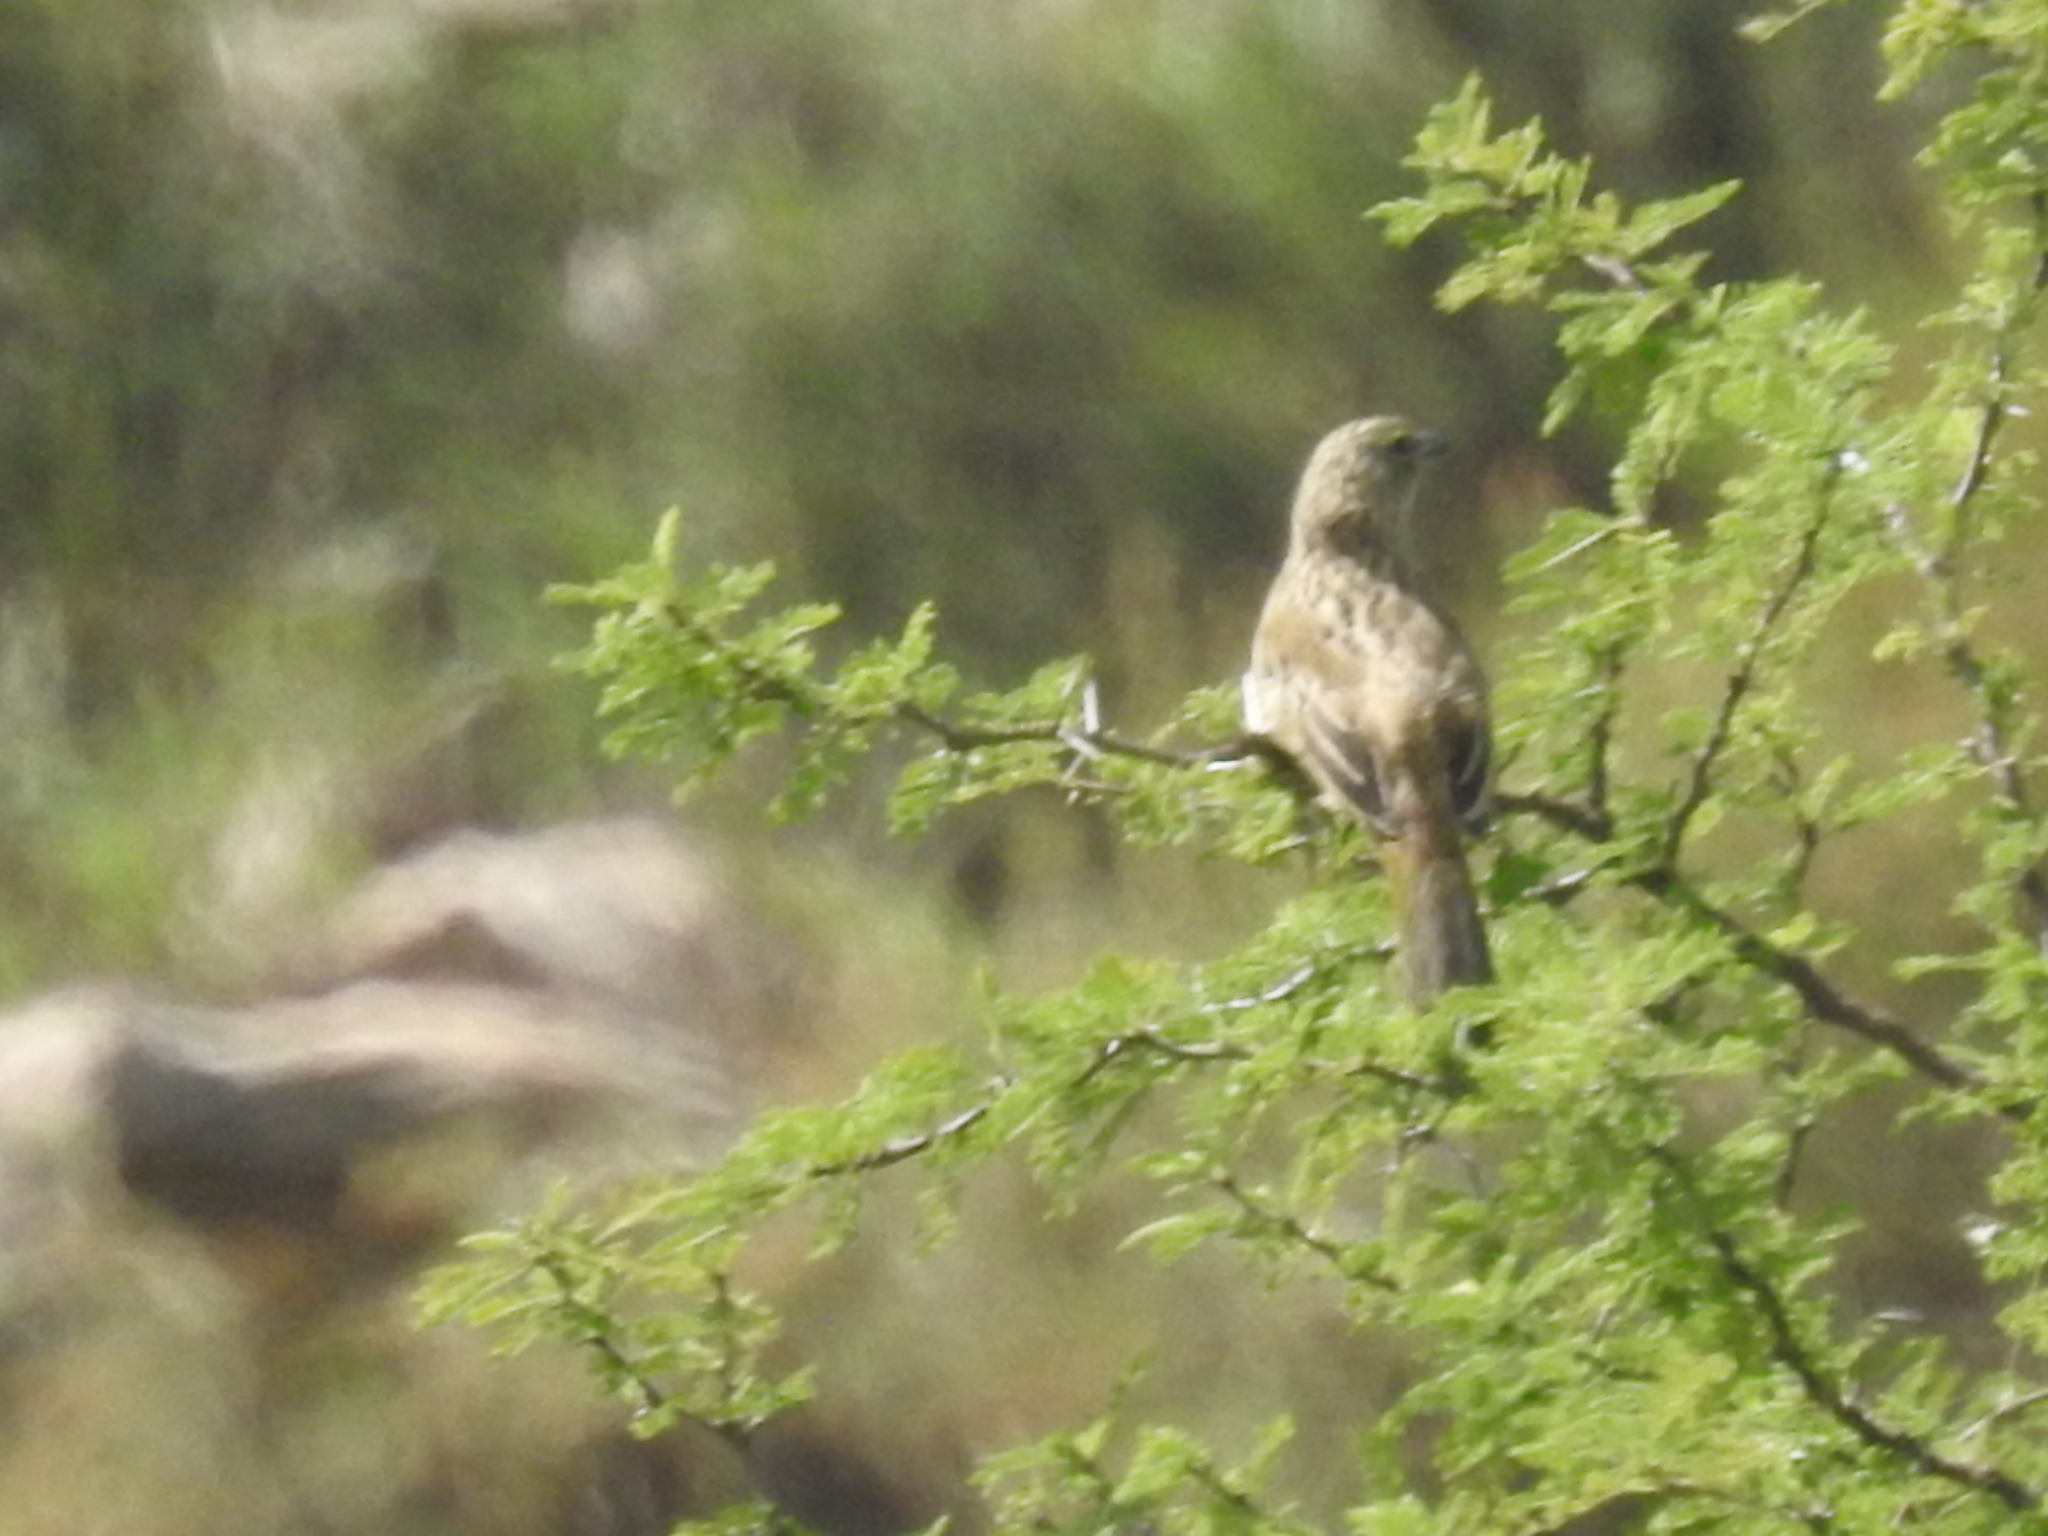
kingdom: Animalia
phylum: Chordata
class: Aves
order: Passeriformes
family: Thraupidae
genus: Embernagra
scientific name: Embernagra platensis
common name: Pampa finch
